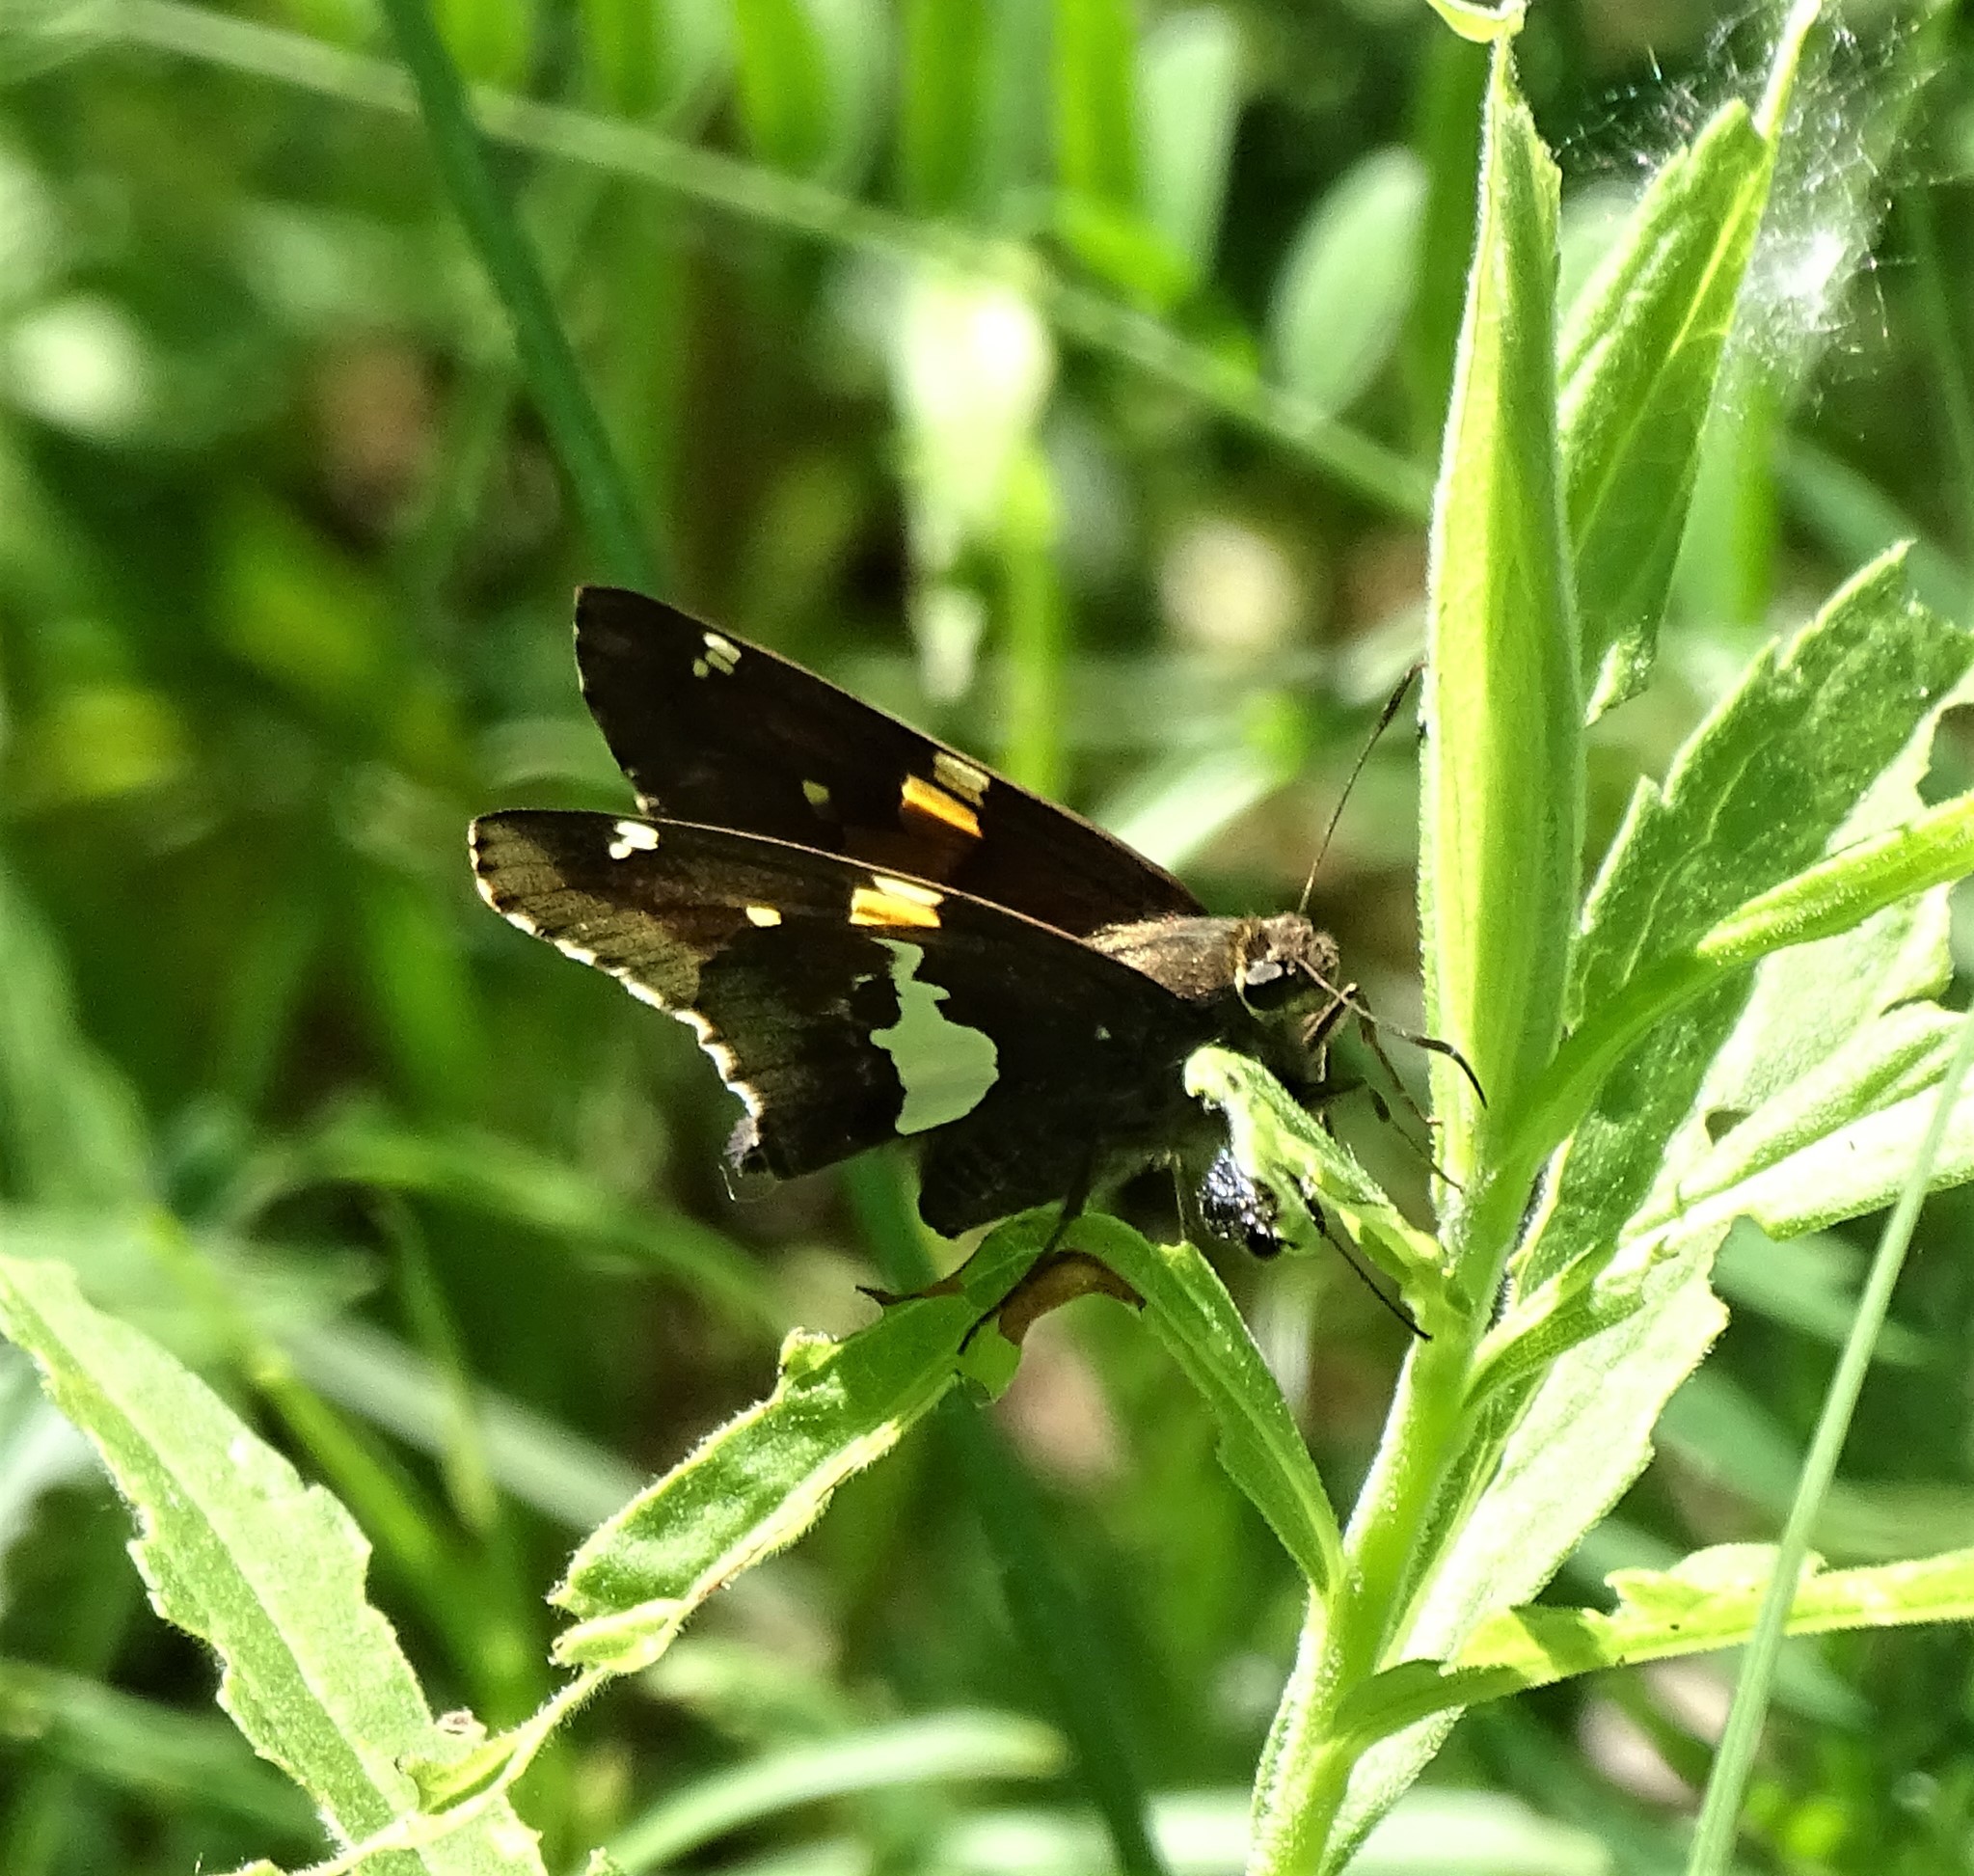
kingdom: Animalia
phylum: Arthropoda
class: Insecta
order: Lepidoptera
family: Hesperiidae
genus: Epargyreus
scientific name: Epargyreus clarus
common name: Silver-spotted skipper
